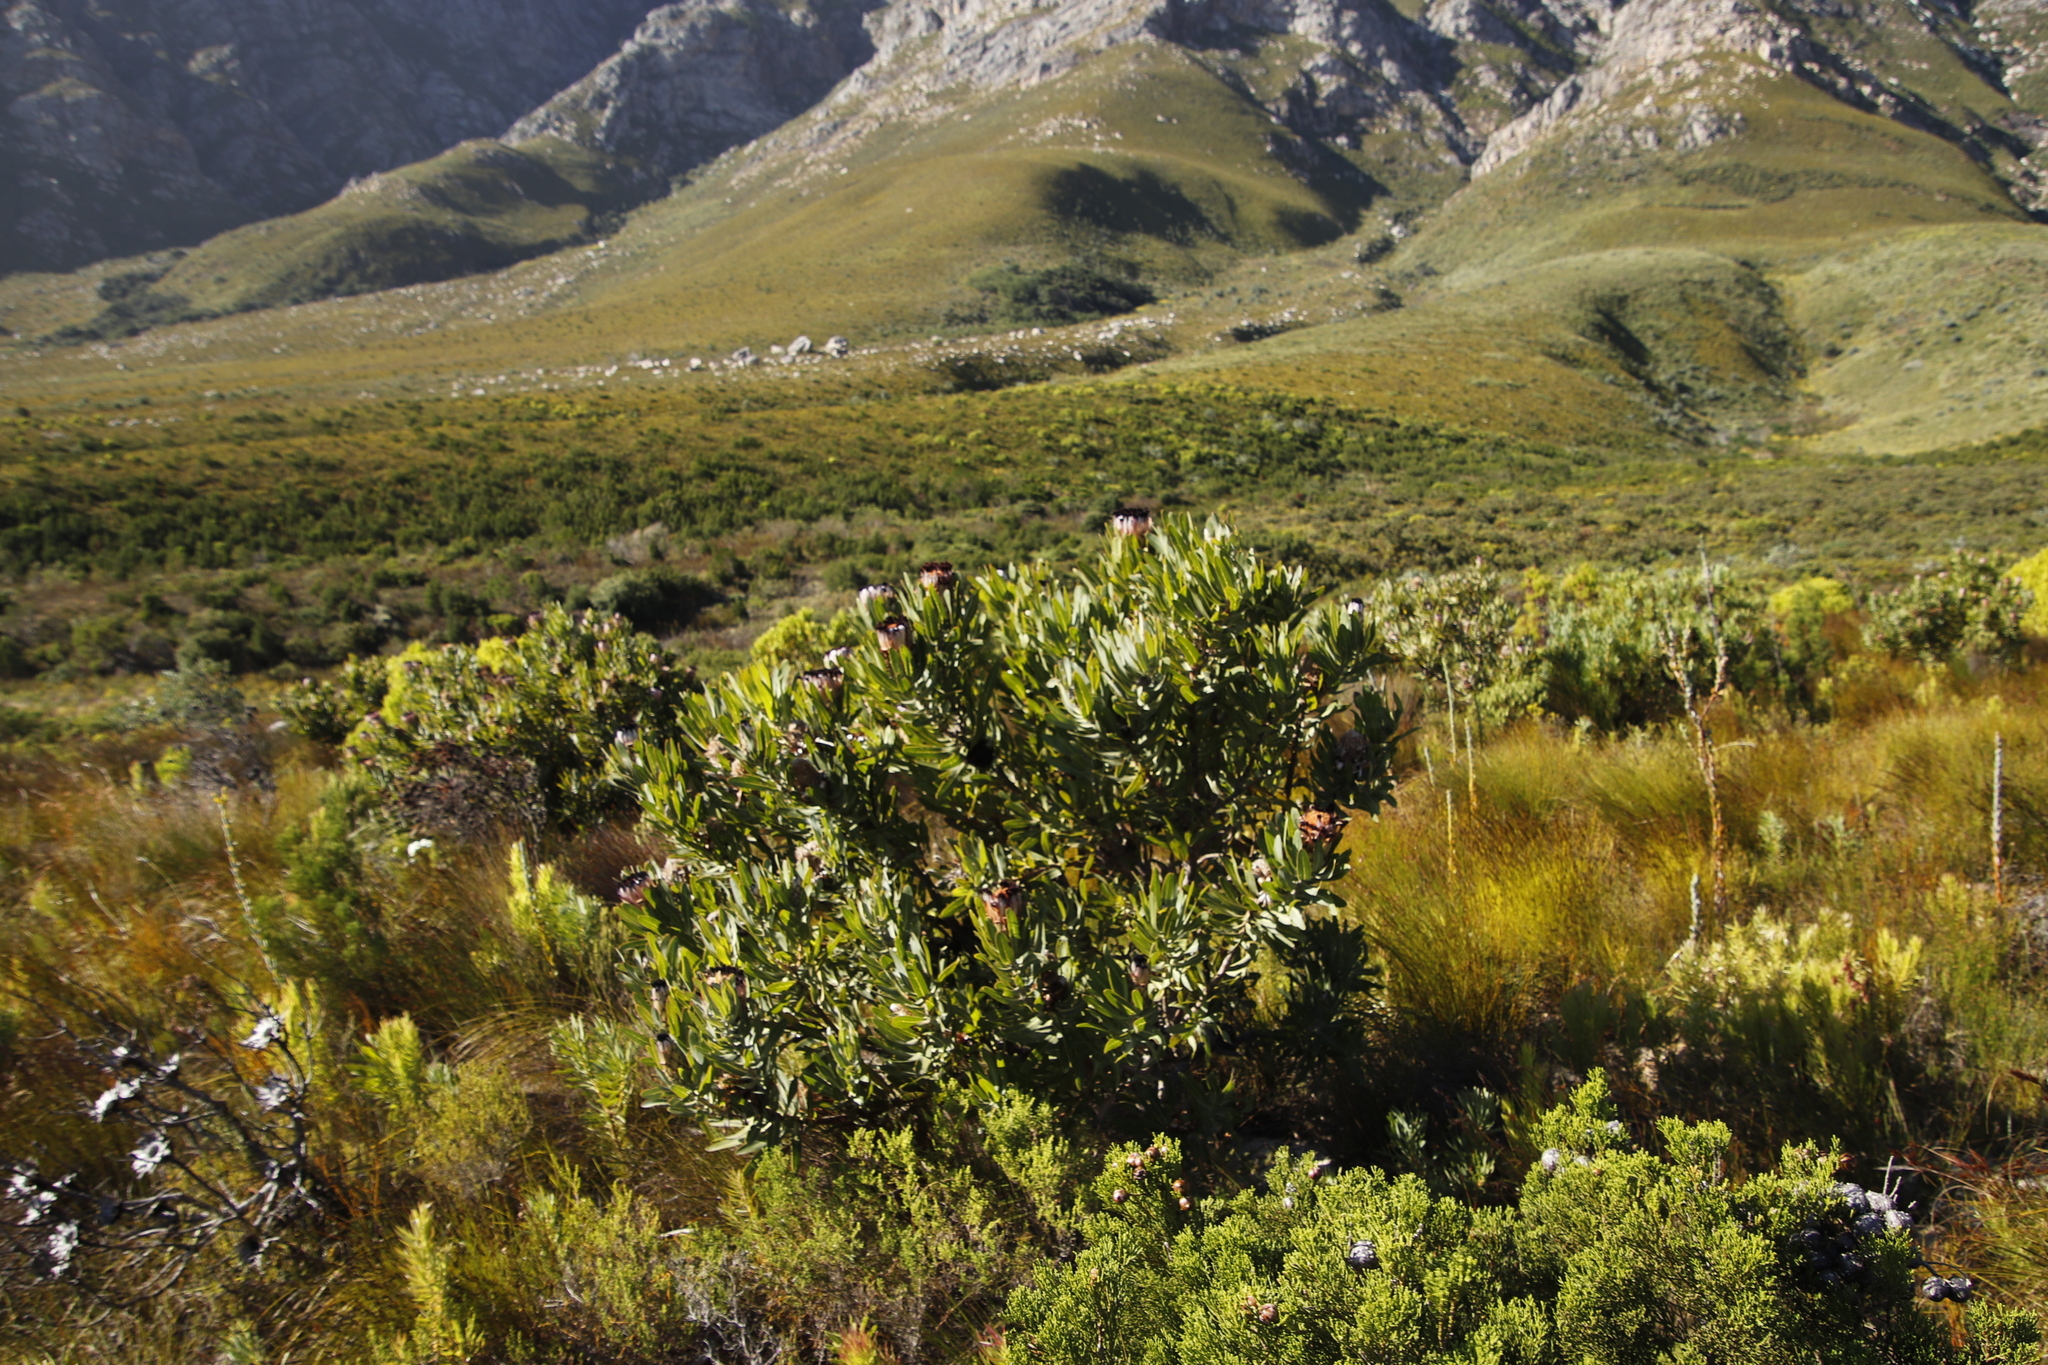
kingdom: Plantae
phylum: Tracheophyta
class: Magnoliopsida
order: Proteales
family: Proteaceae
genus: Protea
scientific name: Protea laurifolia
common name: Grey-leaf sugarbsh
